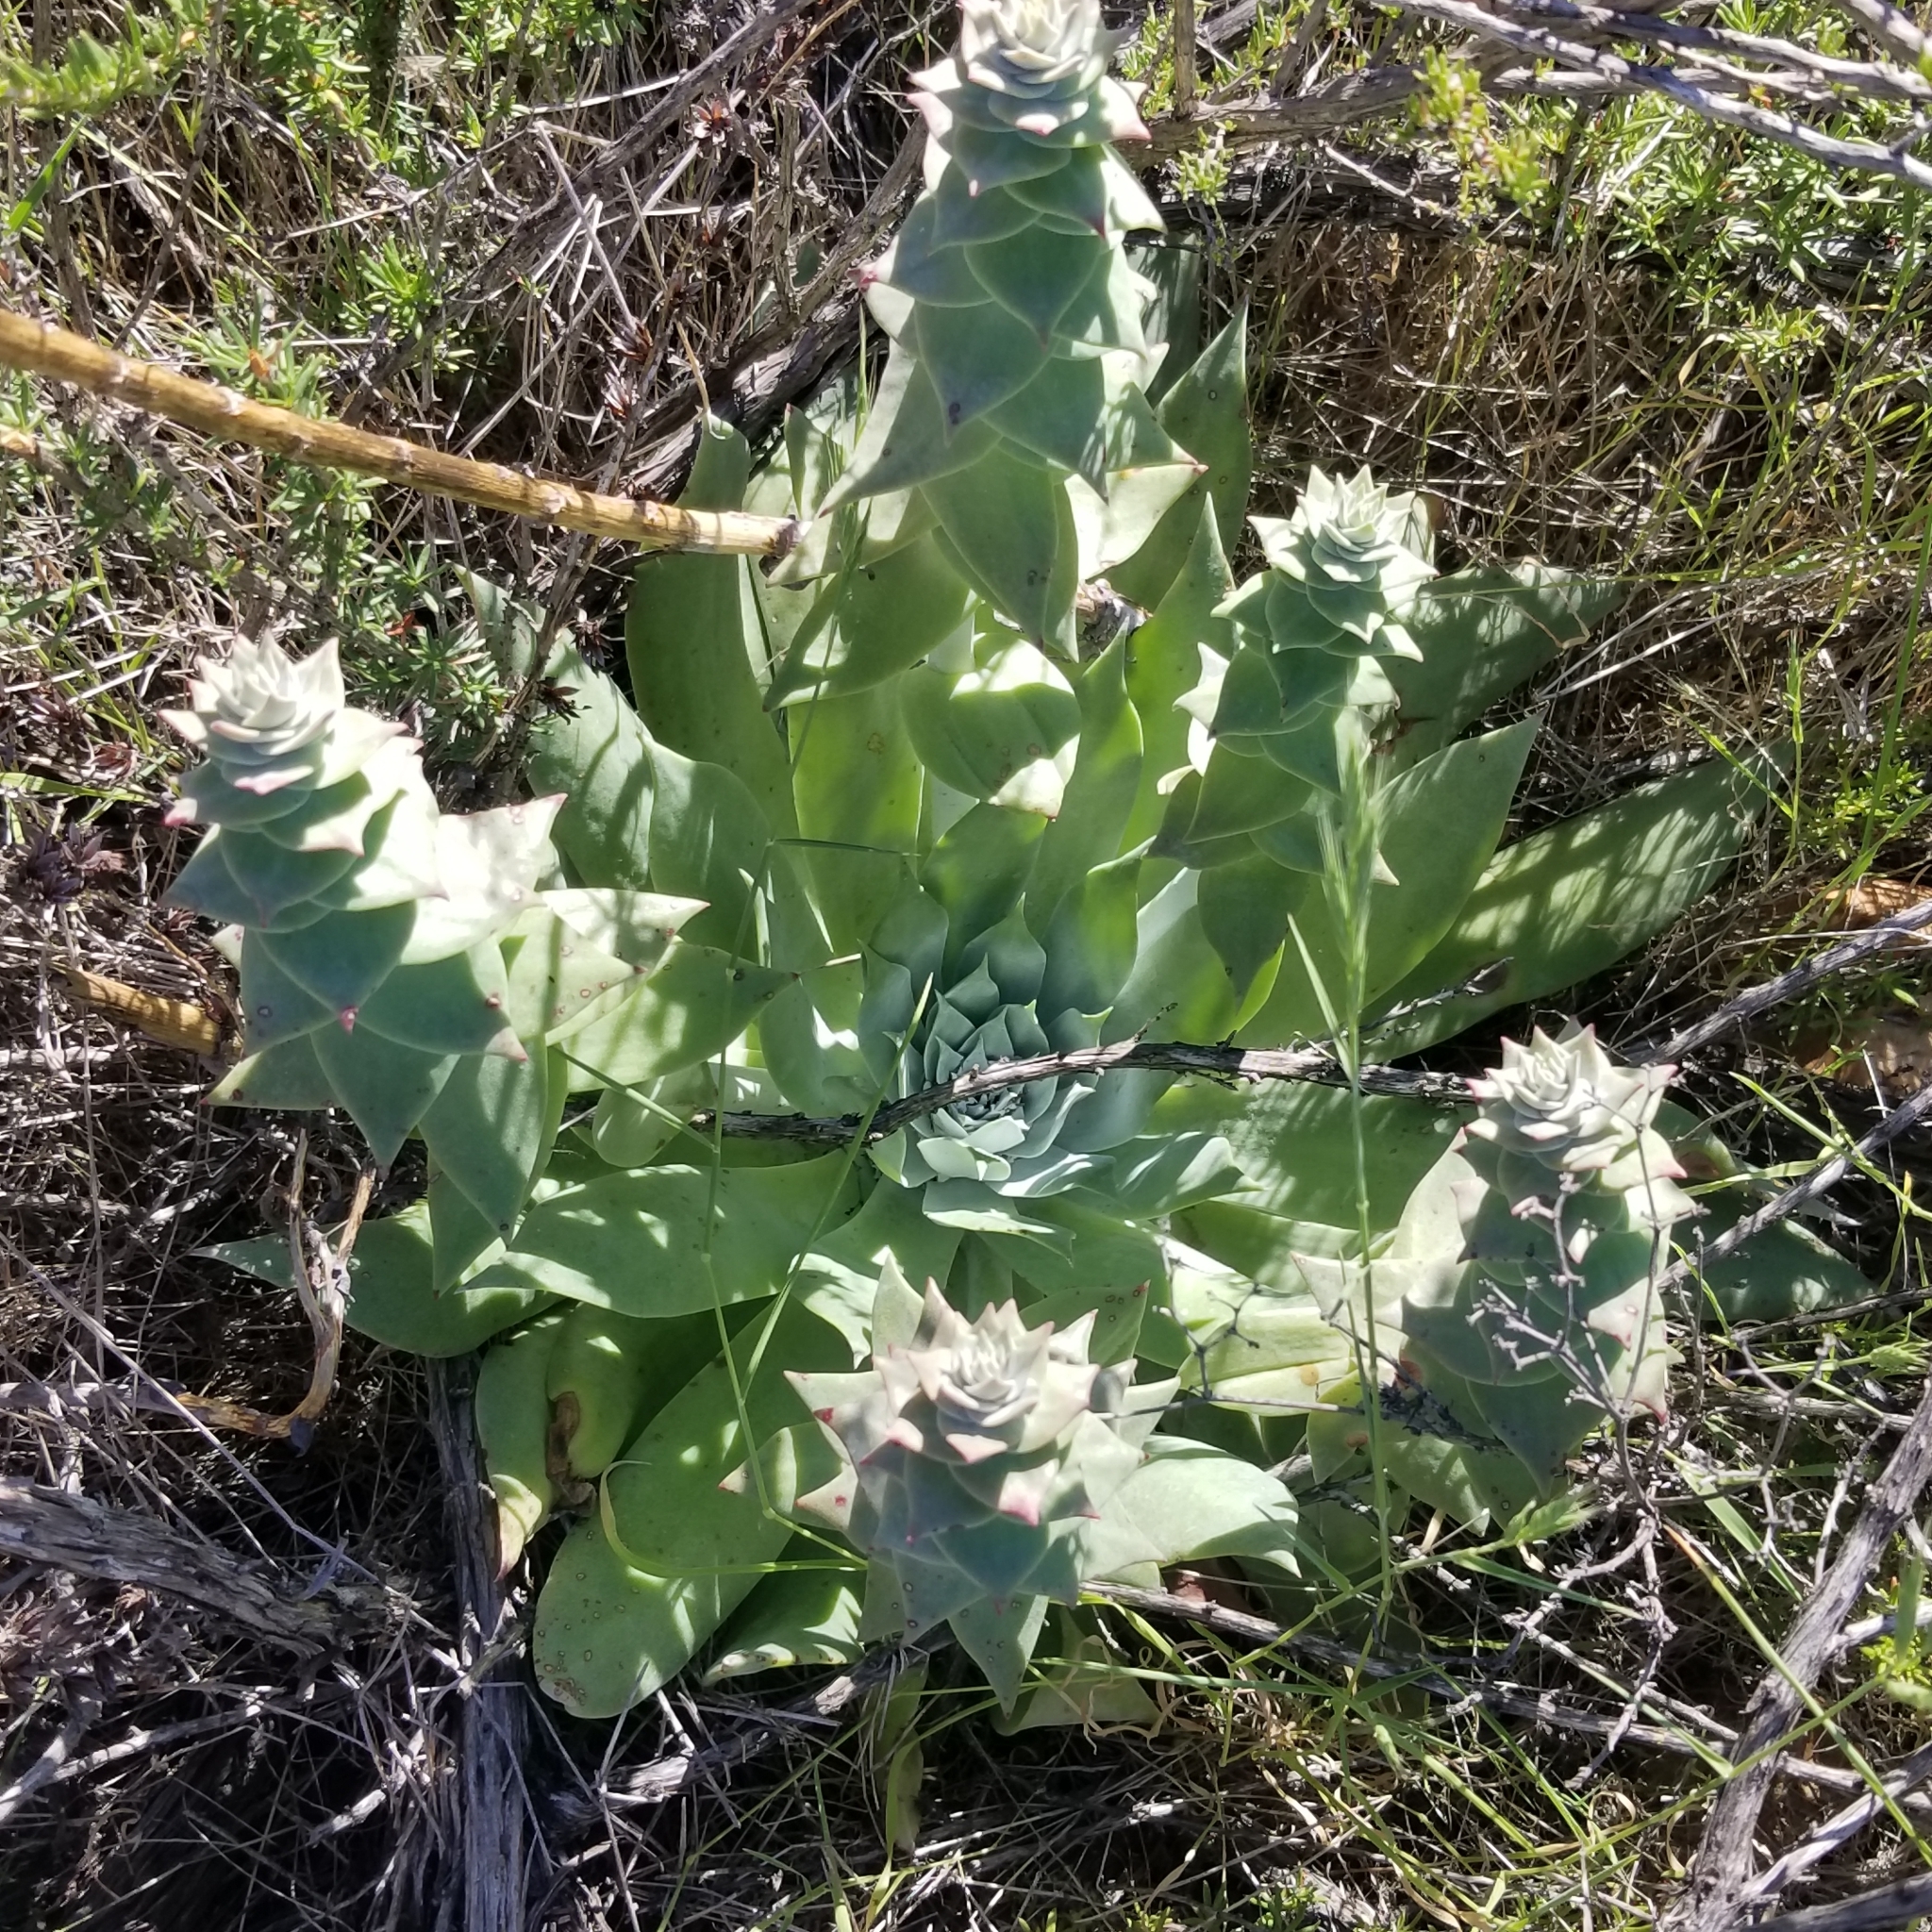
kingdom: Plantae
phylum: Tracheophyta
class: Magnoliopsida
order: Saxifragales
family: Crassulaceae
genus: Dudleya
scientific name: Dudleya pulverulenta
